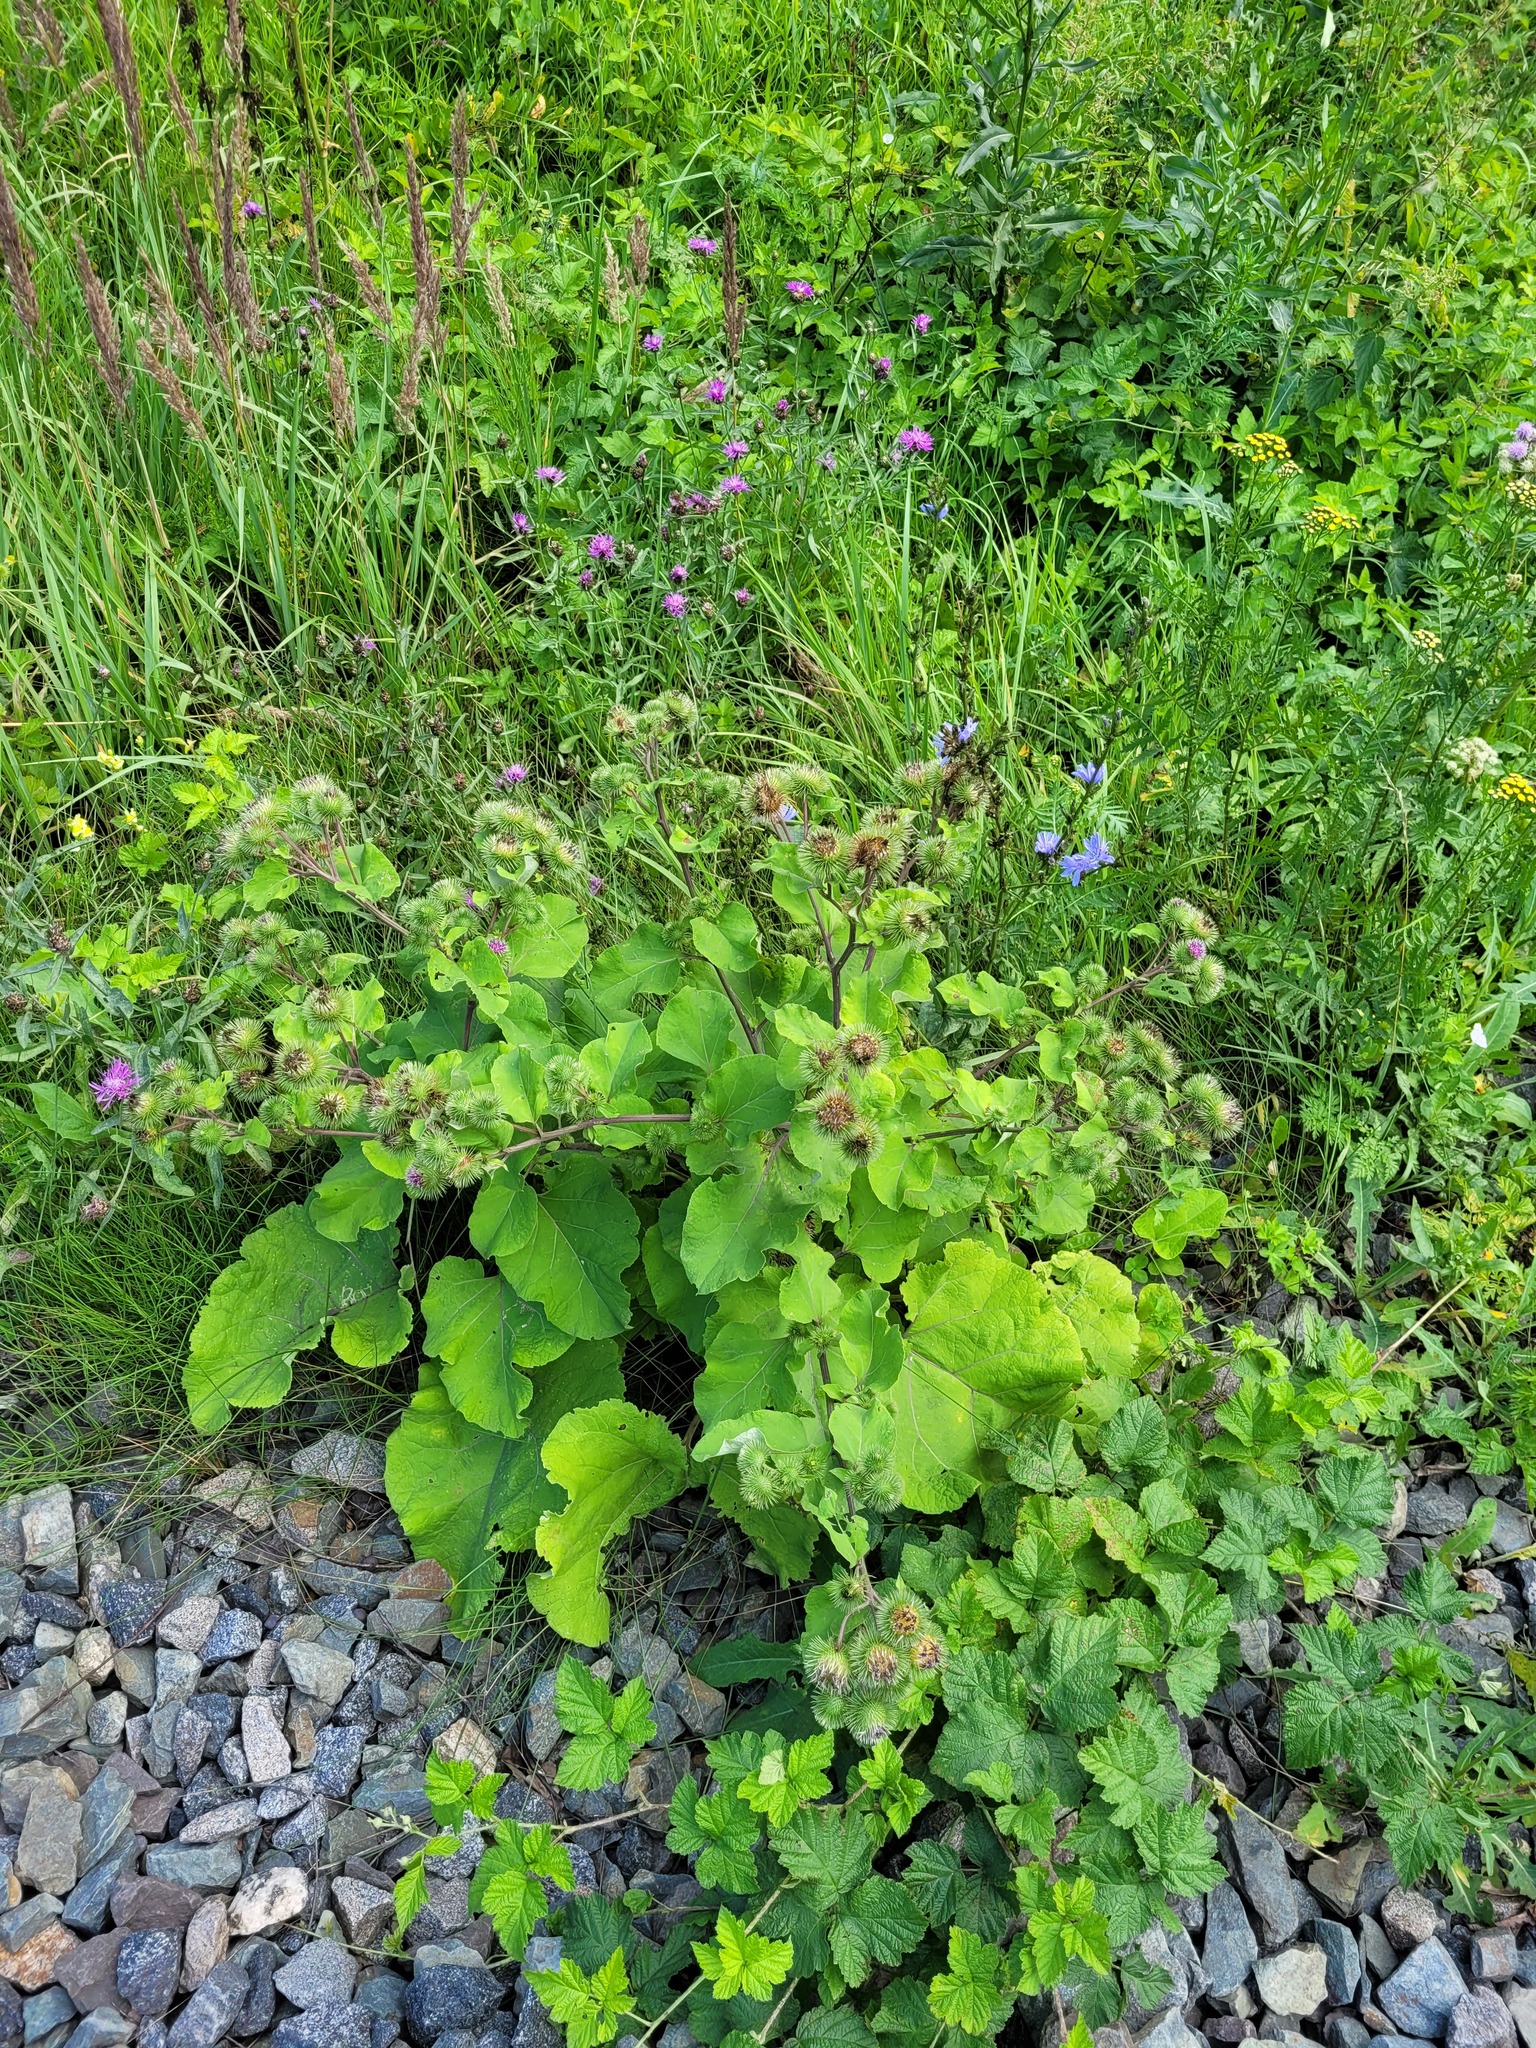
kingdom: Plantae
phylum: Tracheophyta
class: Magnoliopsida
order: Asterales
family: Asteraceae
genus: Arctium
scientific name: Arctium lappa
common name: Greater burdock
